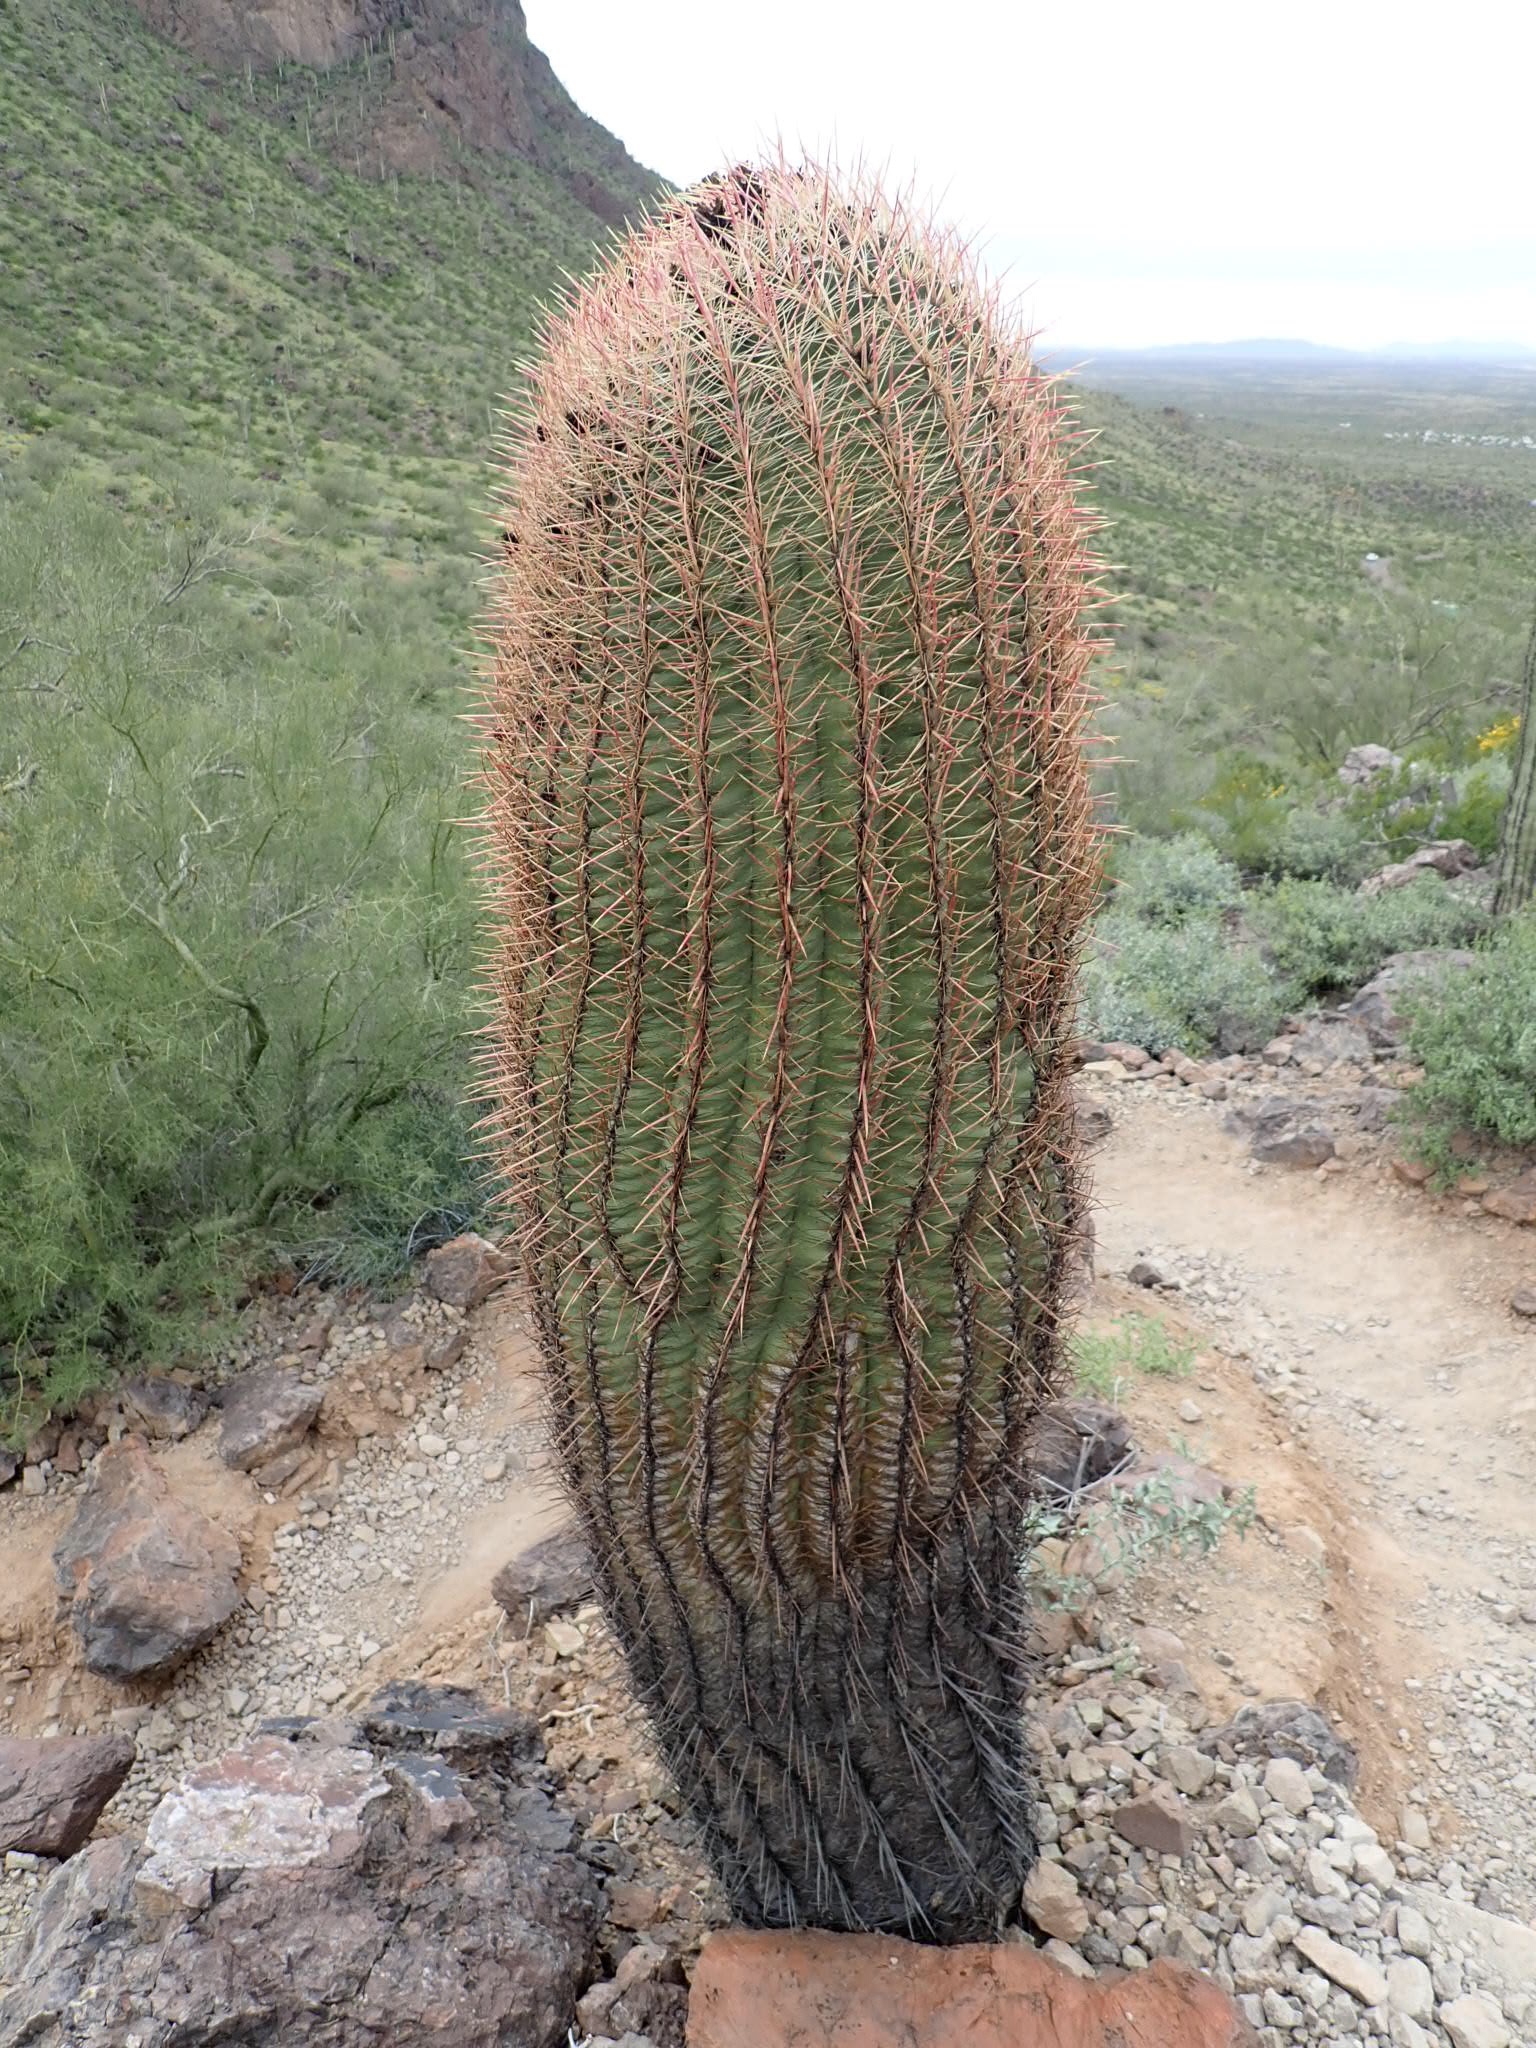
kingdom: Plantae
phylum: Tracheophyta
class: Magnoliopsida
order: Caryophyllales
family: Cactaceae
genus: Ferocactus
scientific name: Ferocactus cylindraceus
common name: California barrel cactus
